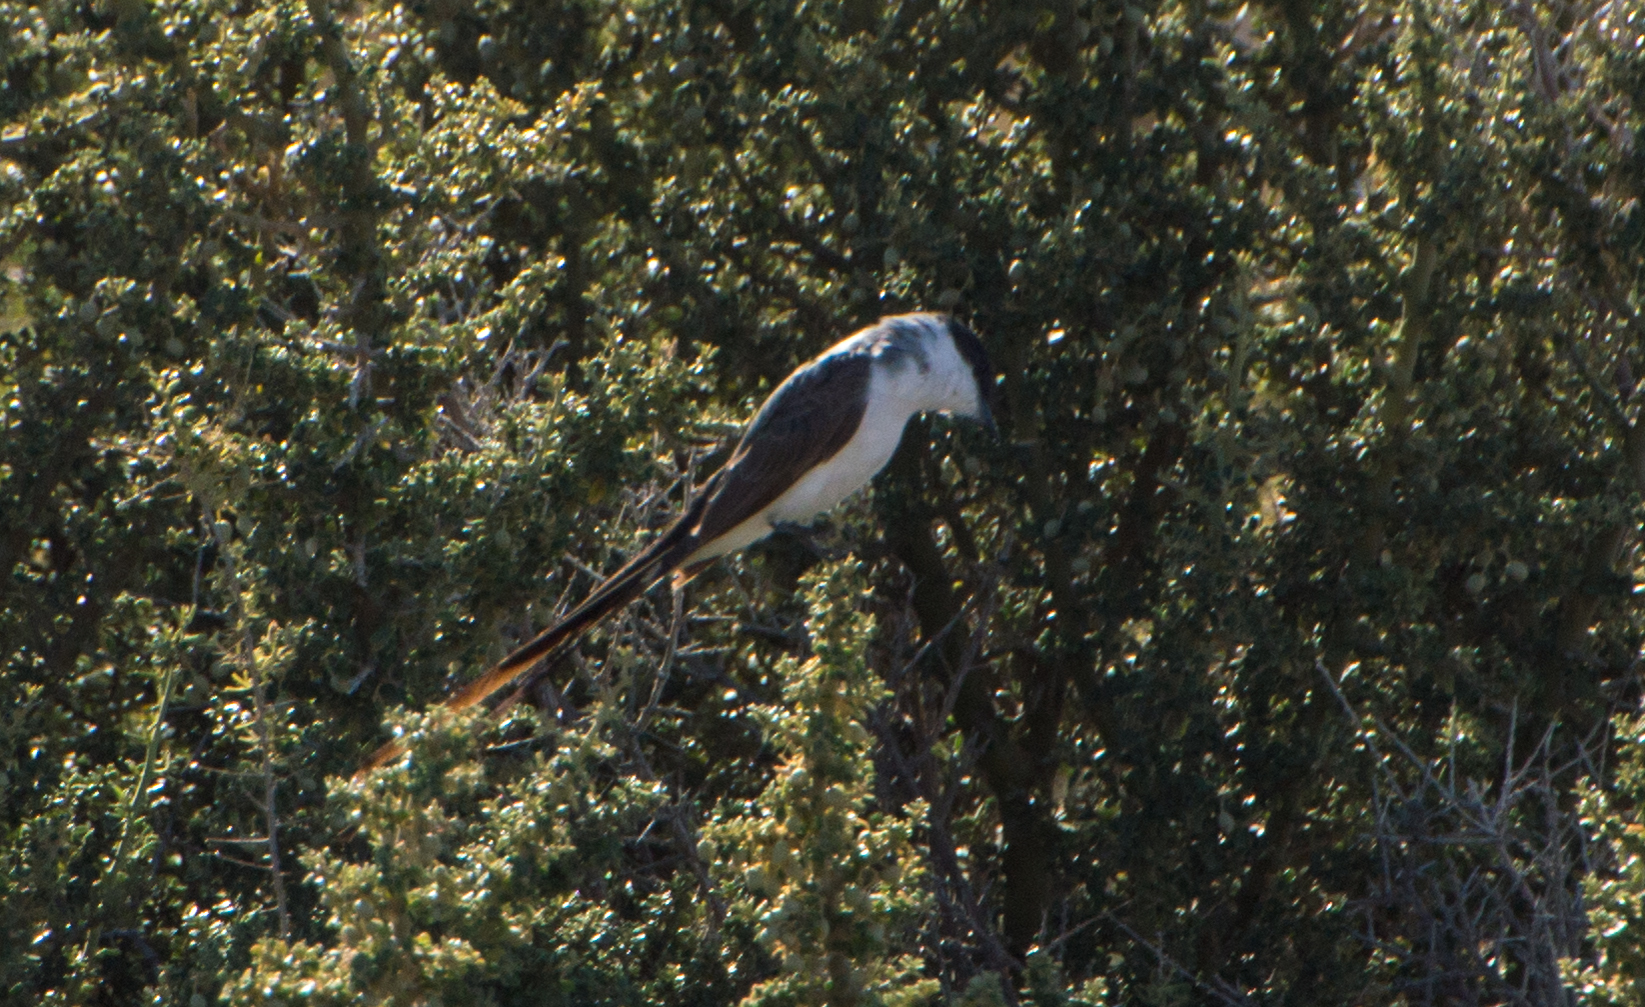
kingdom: Animalia
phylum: Chordata
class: Aves
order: Passeriformes
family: Tyrannidae
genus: Tyrannus
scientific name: Tyrannus savana
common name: Fork-tailed flycatcher
